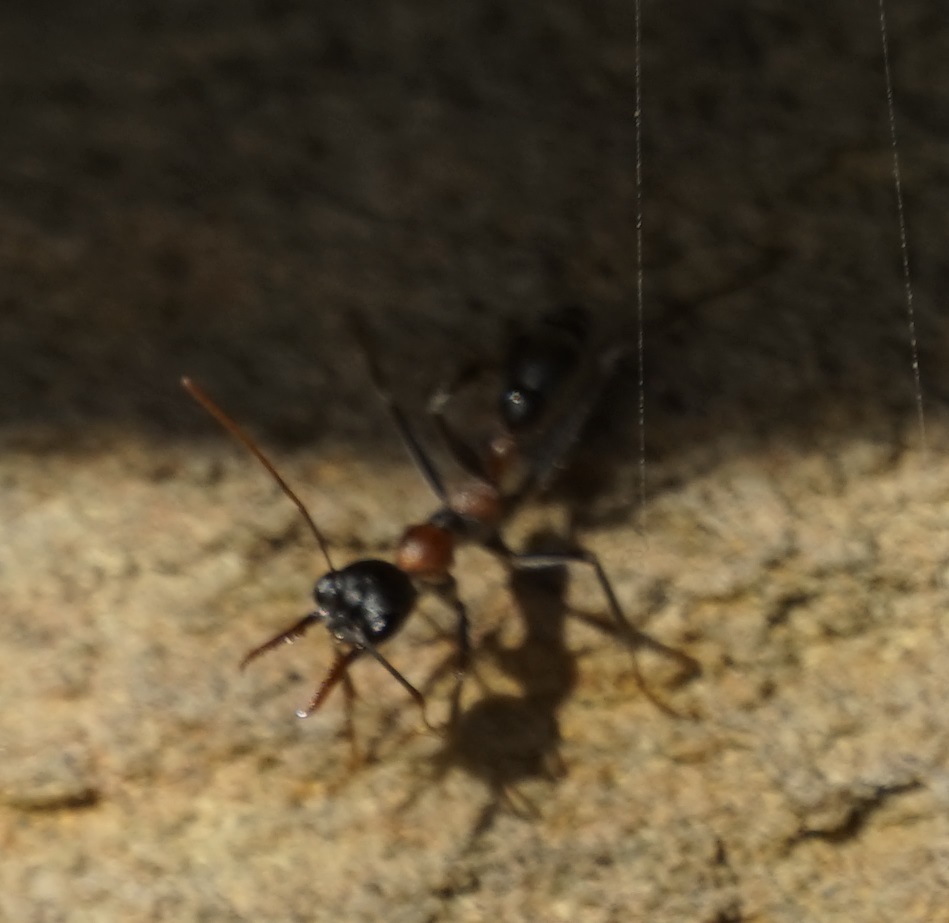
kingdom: Animalia
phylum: Arthropoda
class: Insecta
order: Hymenoptera
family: Formicidae
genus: Myrmecia
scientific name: Myrmecia nigrocincta
